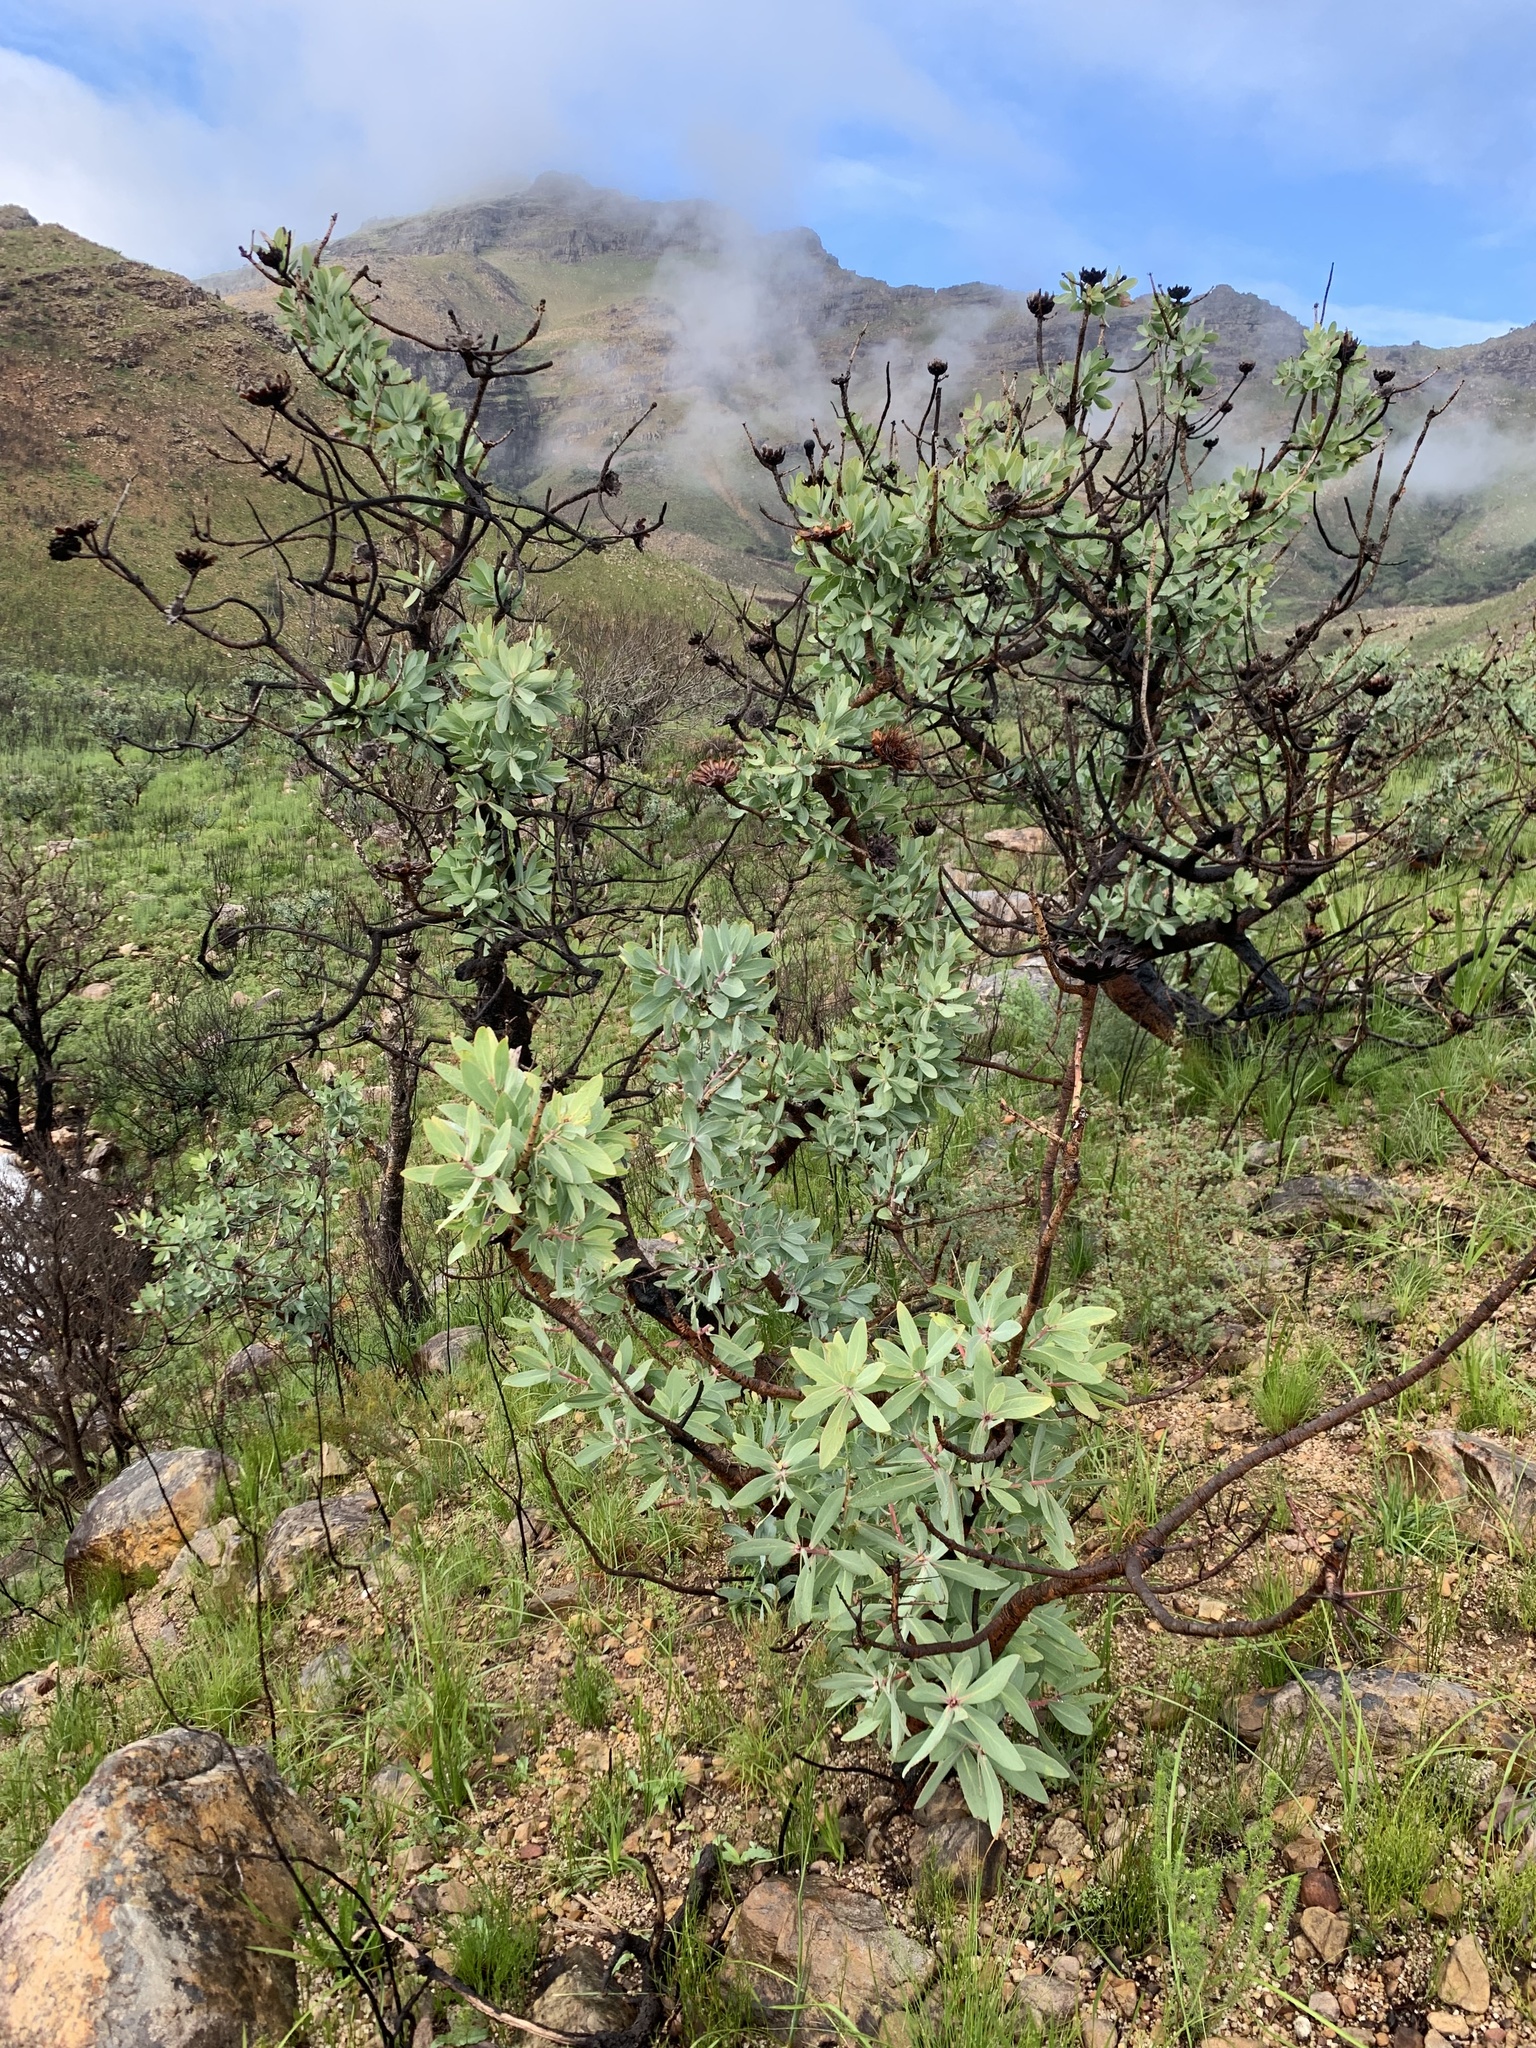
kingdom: Plantae
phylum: Tracheophyta
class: Magnoliopsida
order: Proteales
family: Proteaceae
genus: Protea
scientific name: Protea nitida
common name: Tree protea
